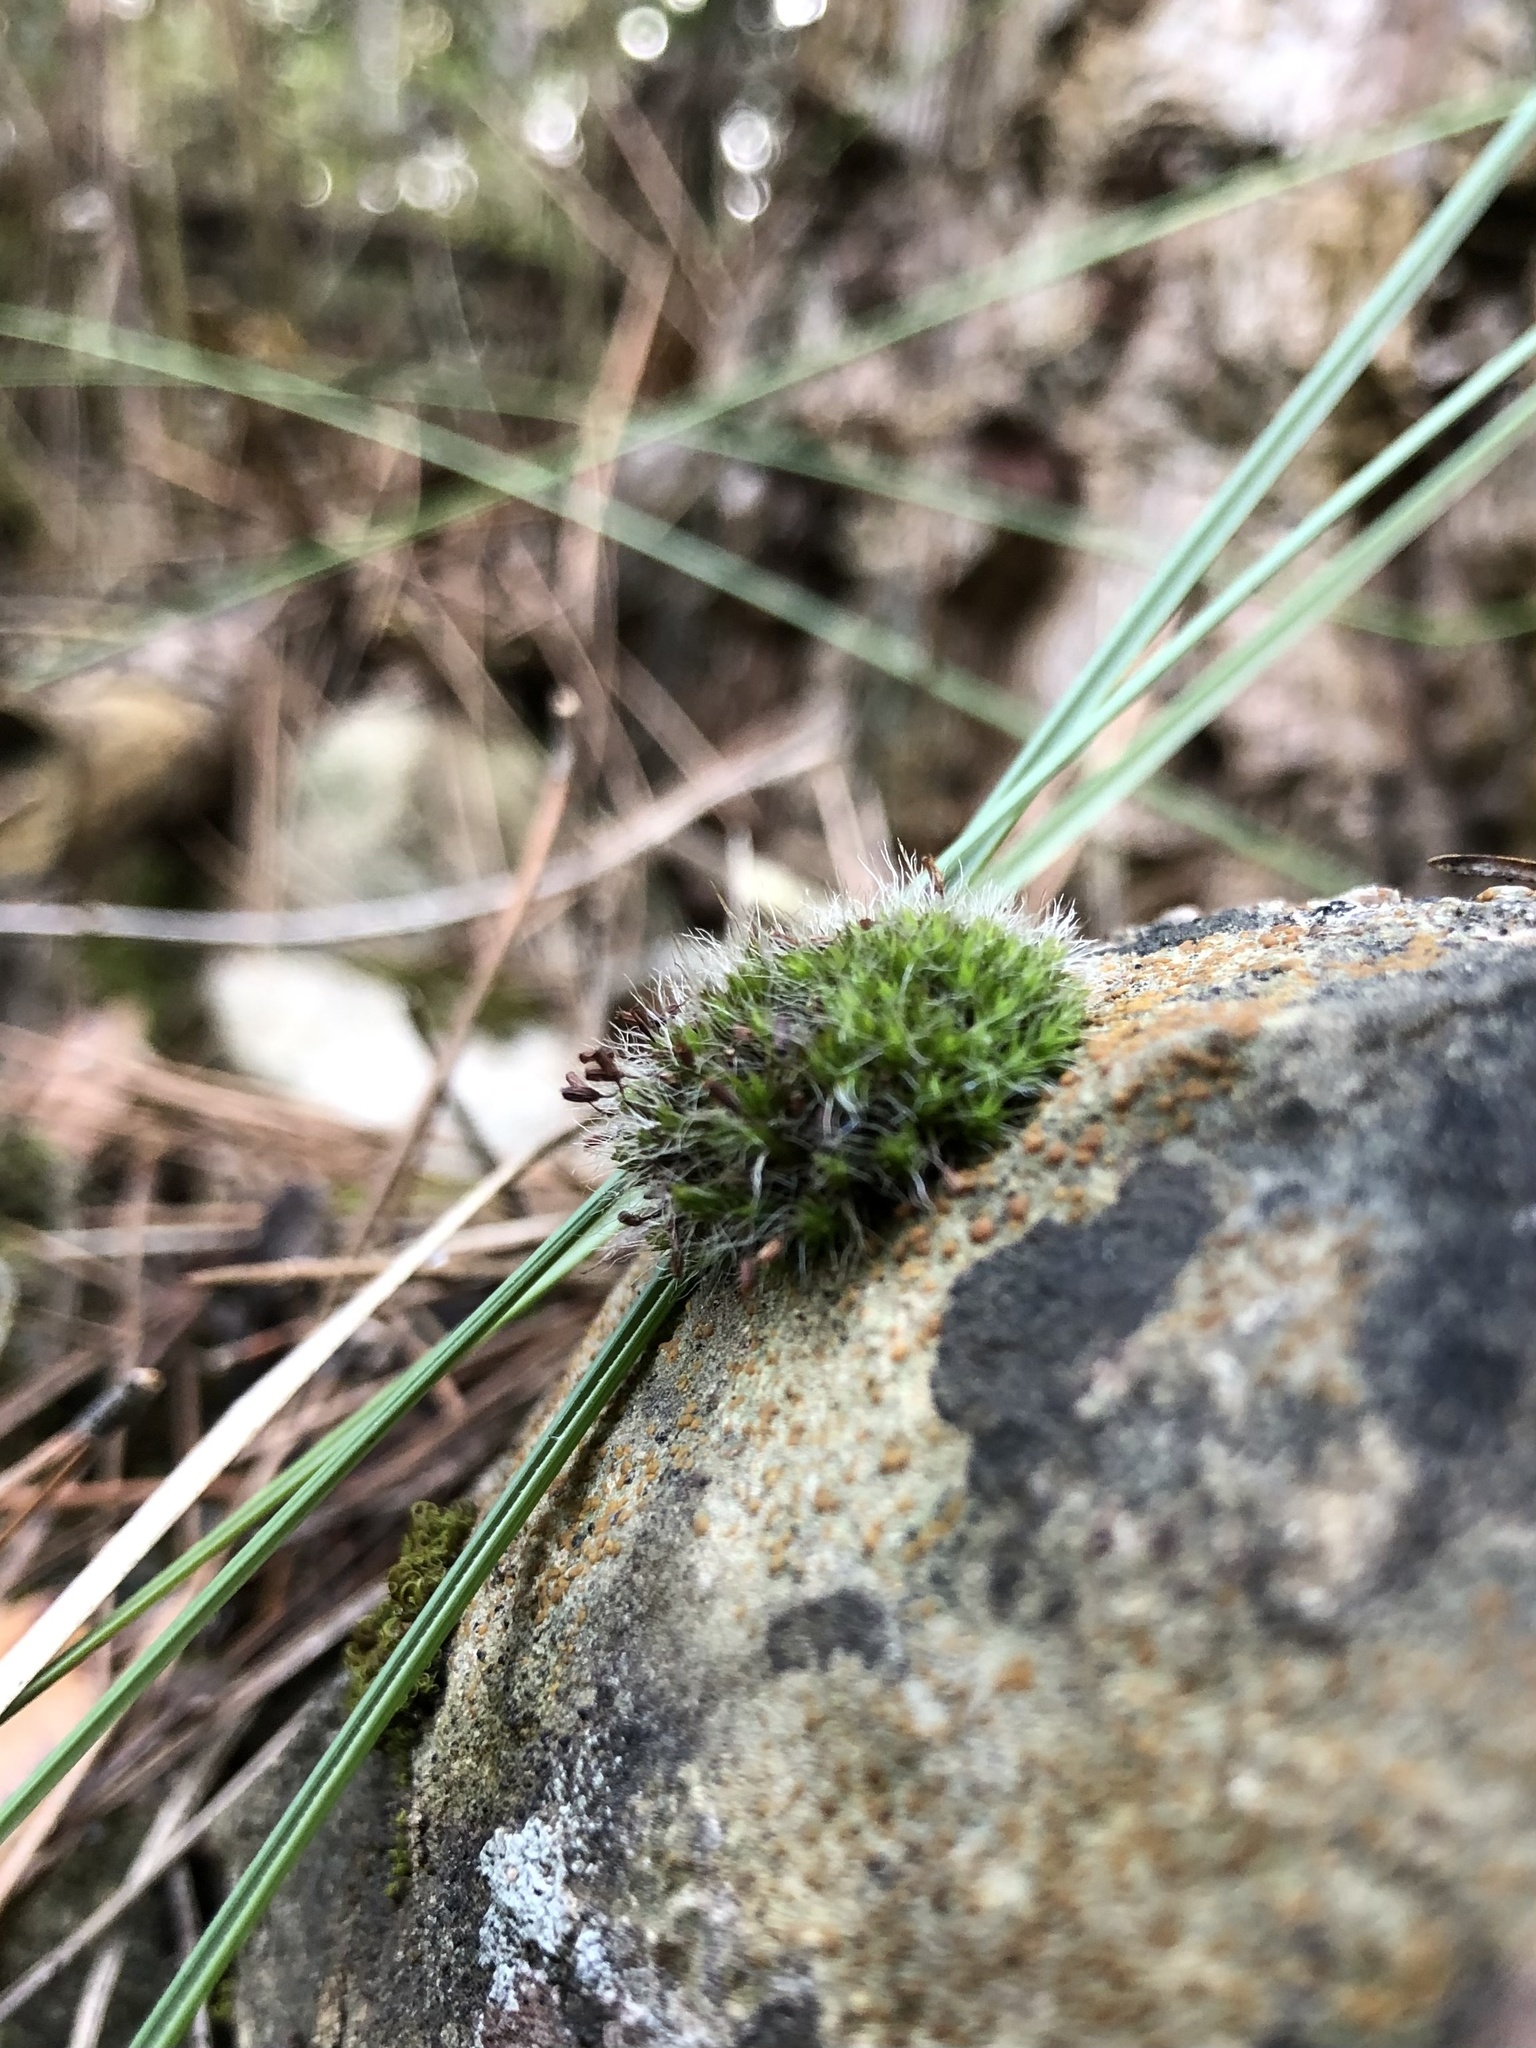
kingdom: Plantae
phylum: Bryophyta
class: Bryopsida
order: Grimmiales
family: Grimmiaceae
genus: Grimmia
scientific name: Grimmia pulvinata
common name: Grey-cushioned grimmia
